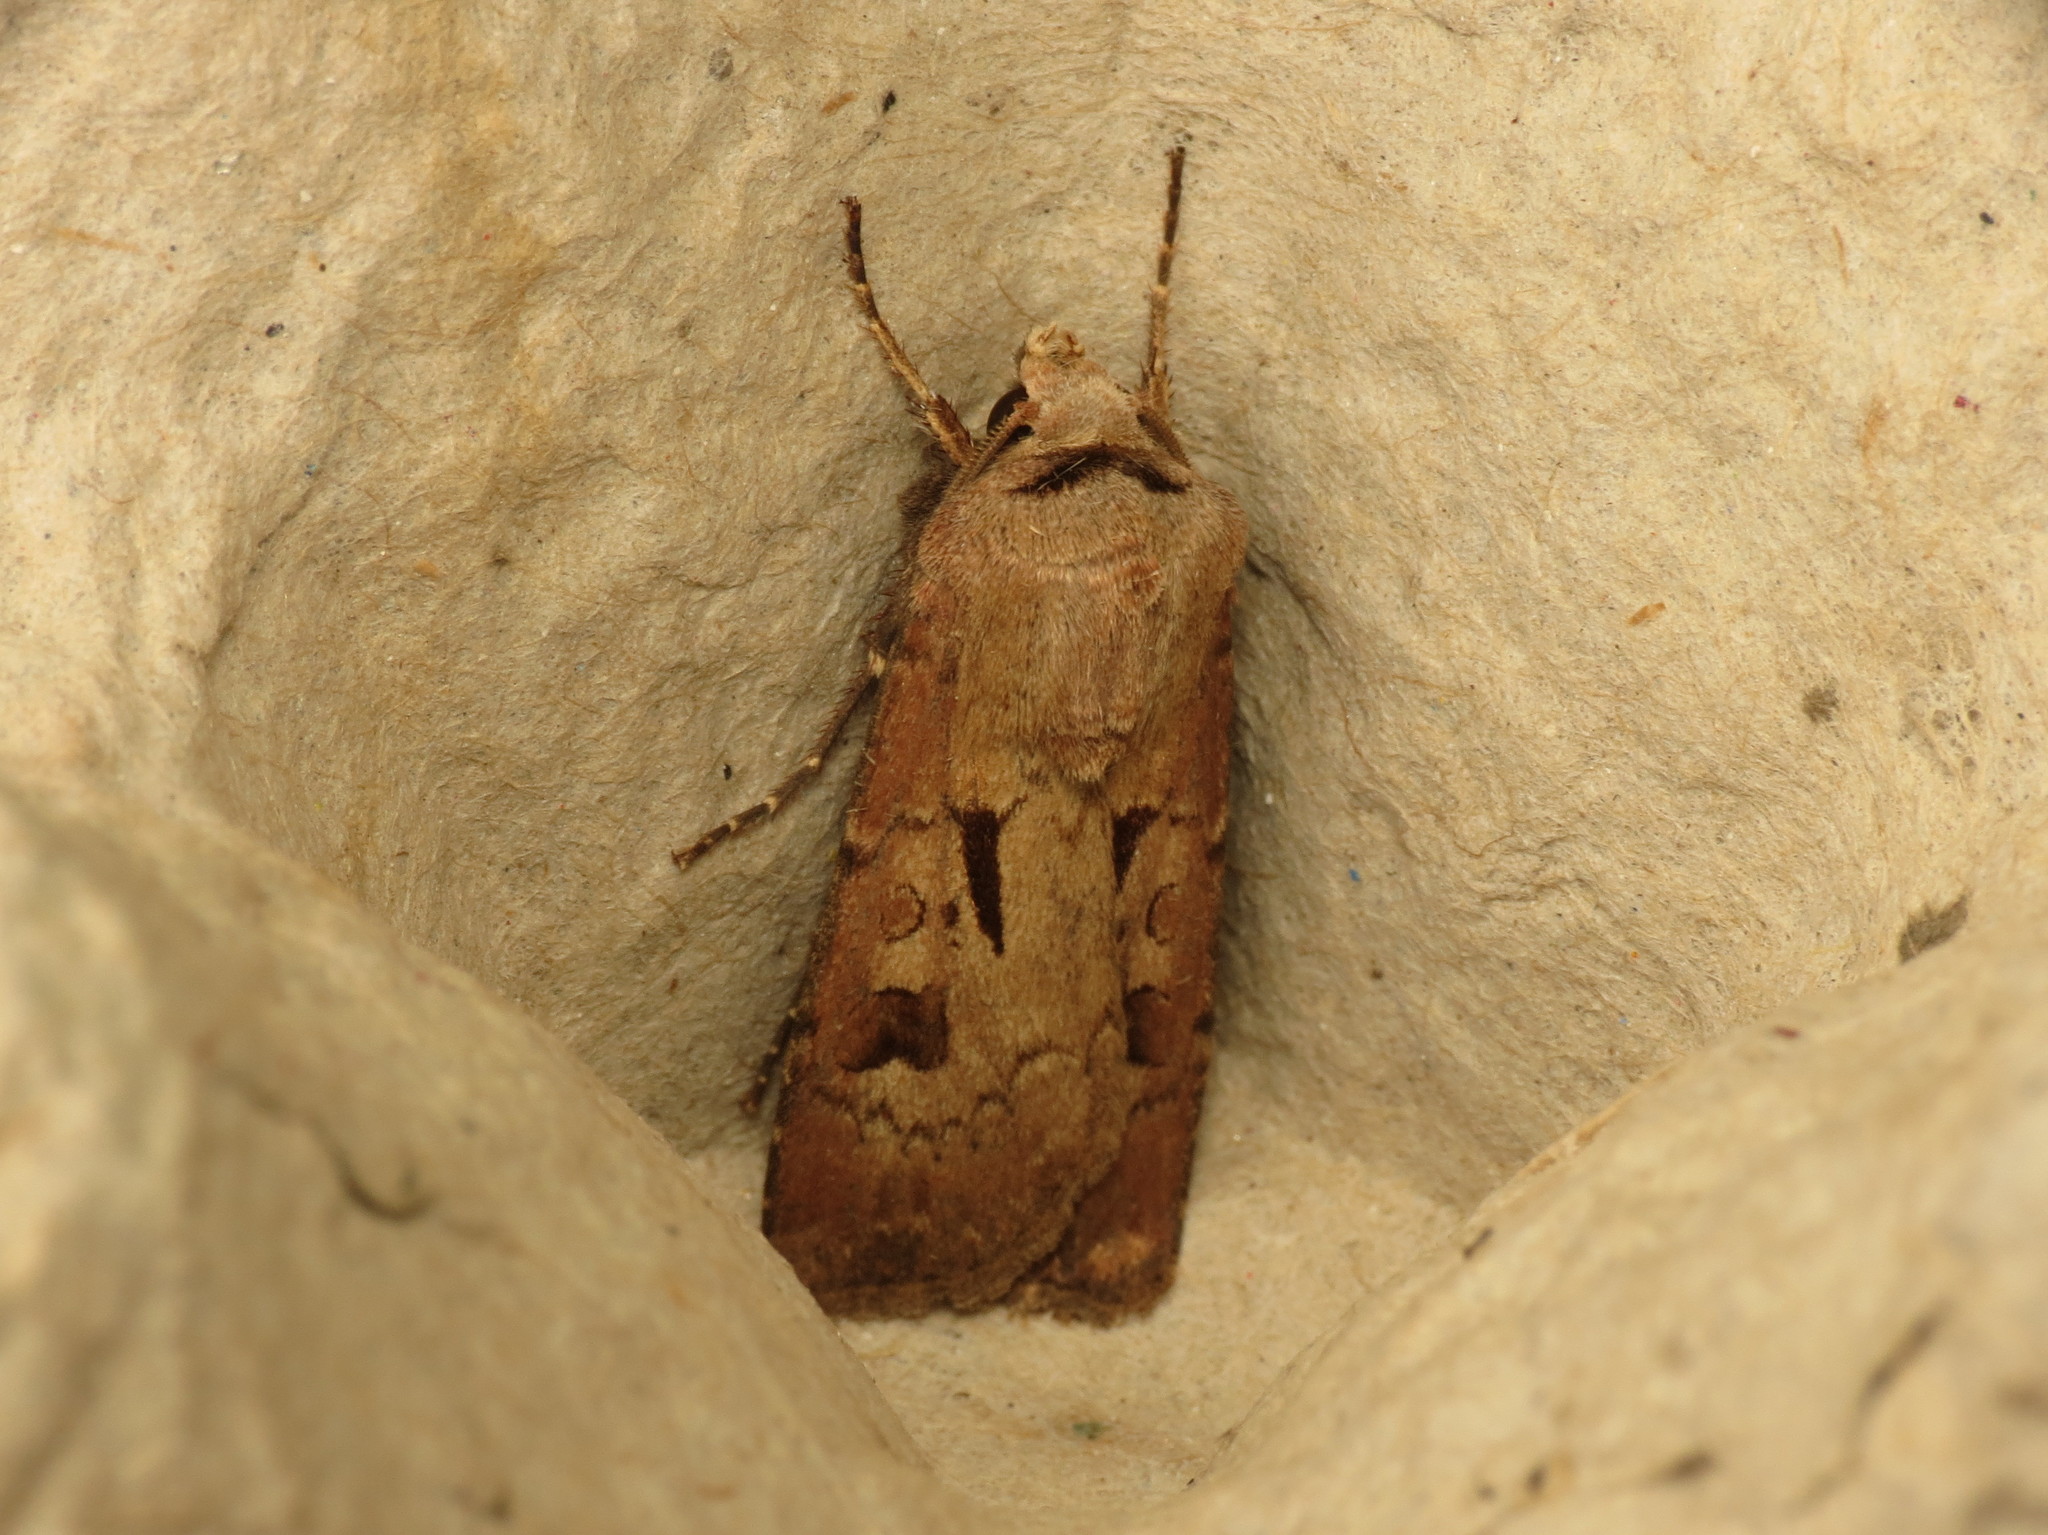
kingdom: Animalia
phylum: Arthropoda
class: Insecta
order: Lepidoptera
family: Noctuidae
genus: Agrotis
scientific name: Agrotis exclamationis
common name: Heart and dart
